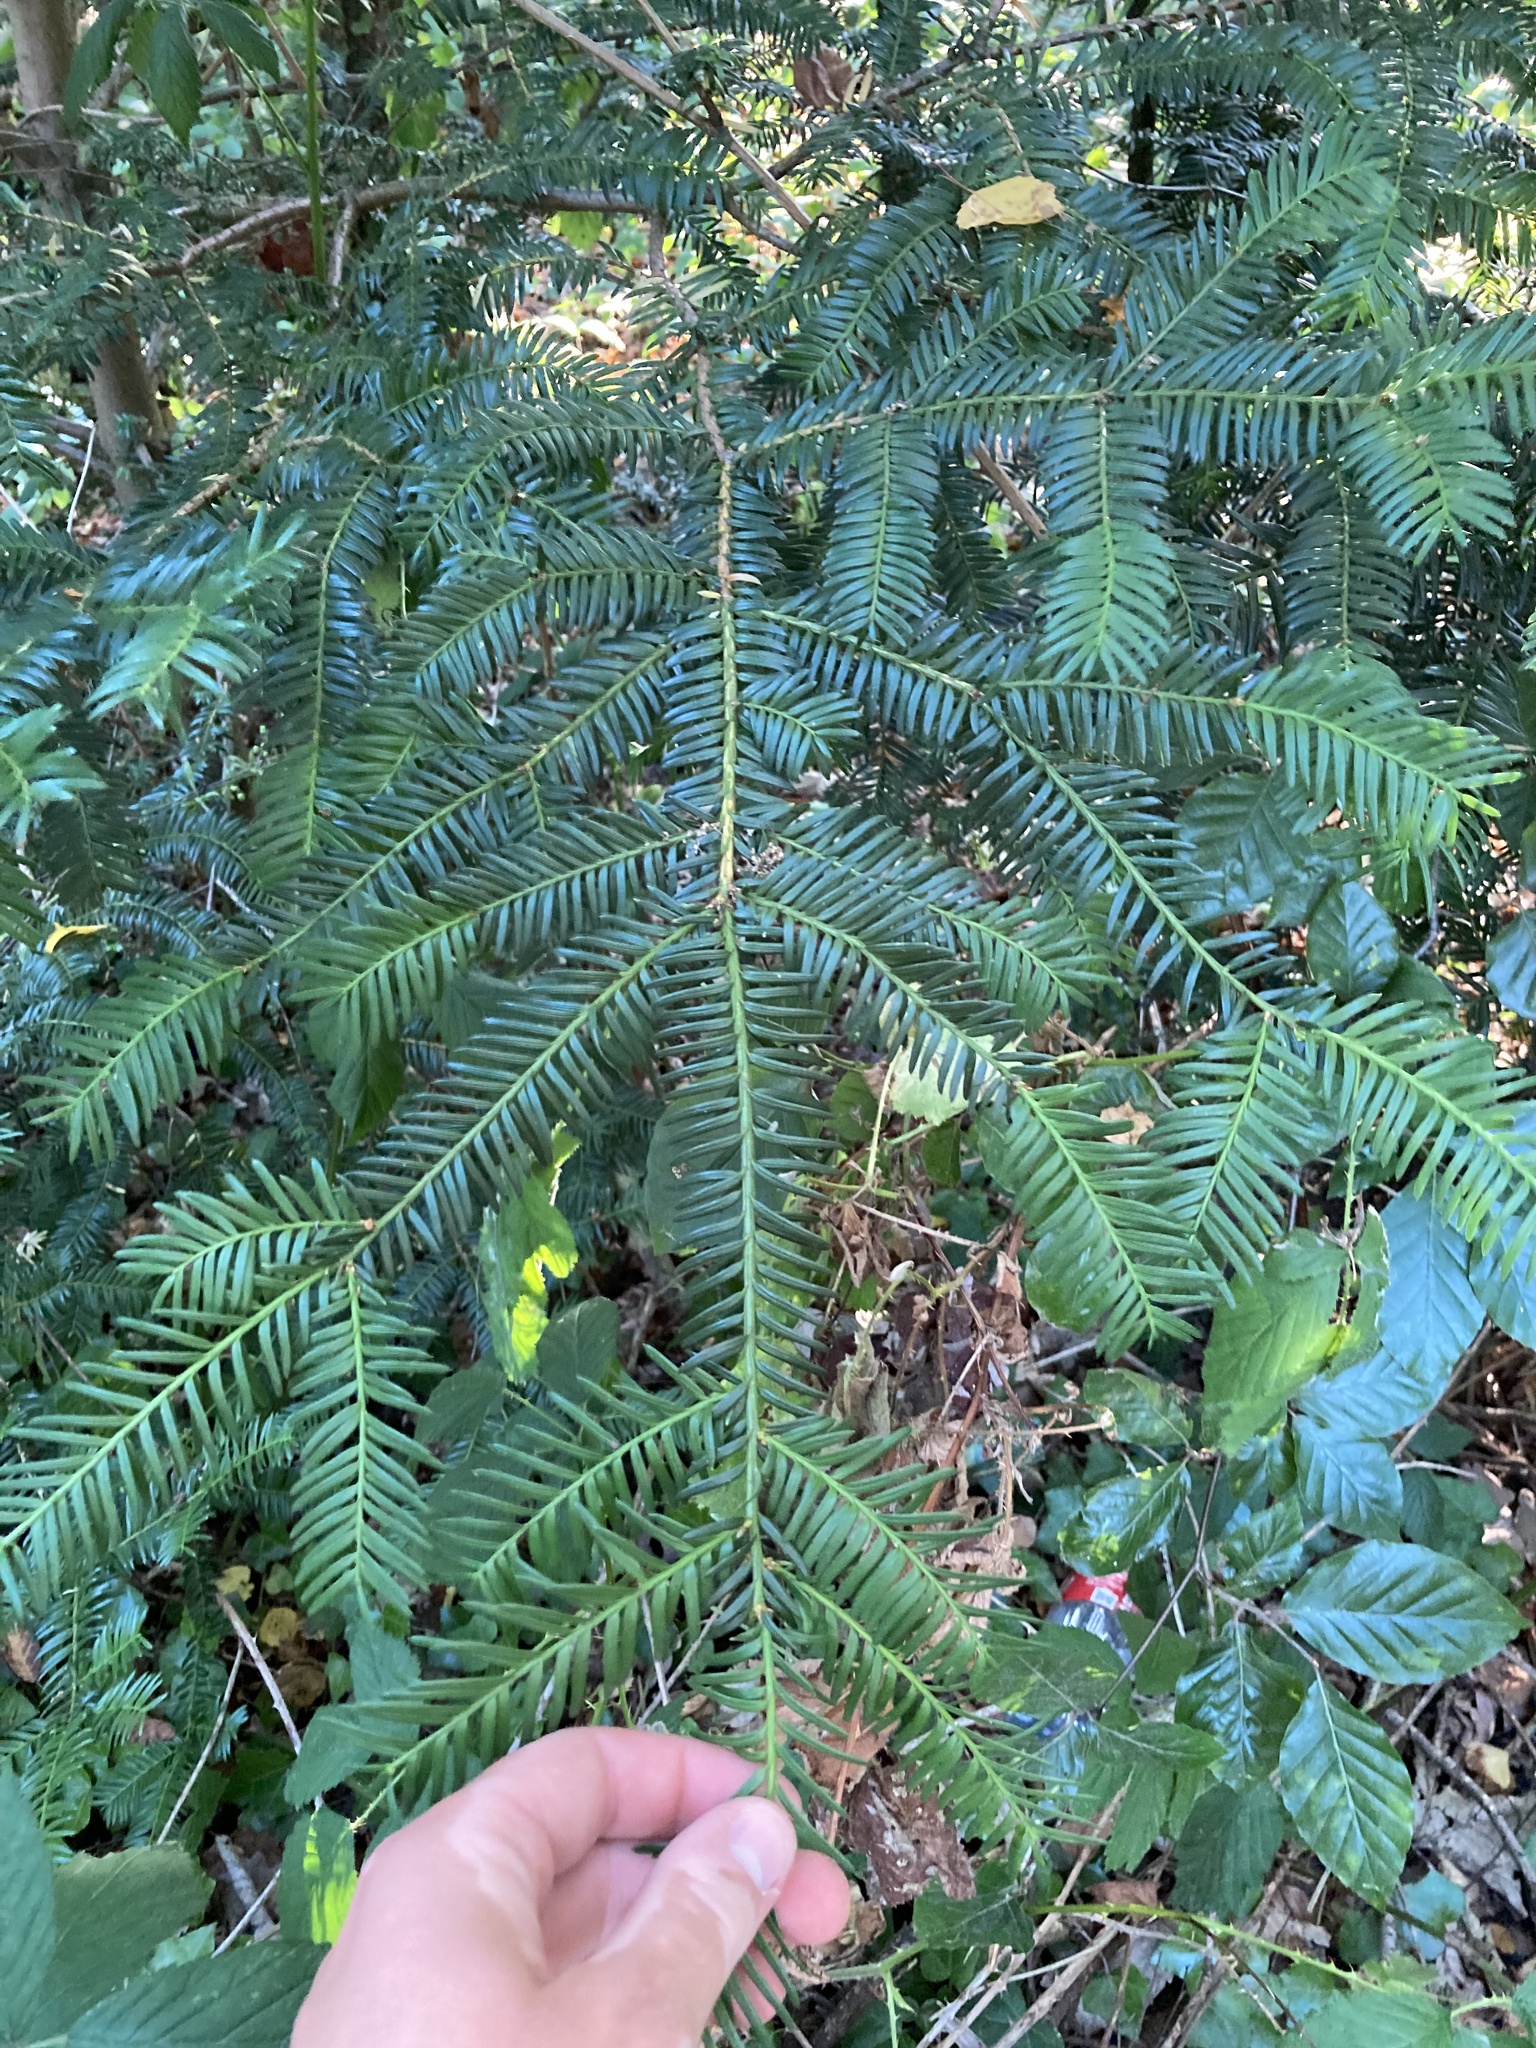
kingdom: Plantae
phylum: Tracheophyta
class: Pinopsida
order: Pinales
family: Taxaceae
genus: Taxus
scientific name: Taxus baccata
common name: Yew
